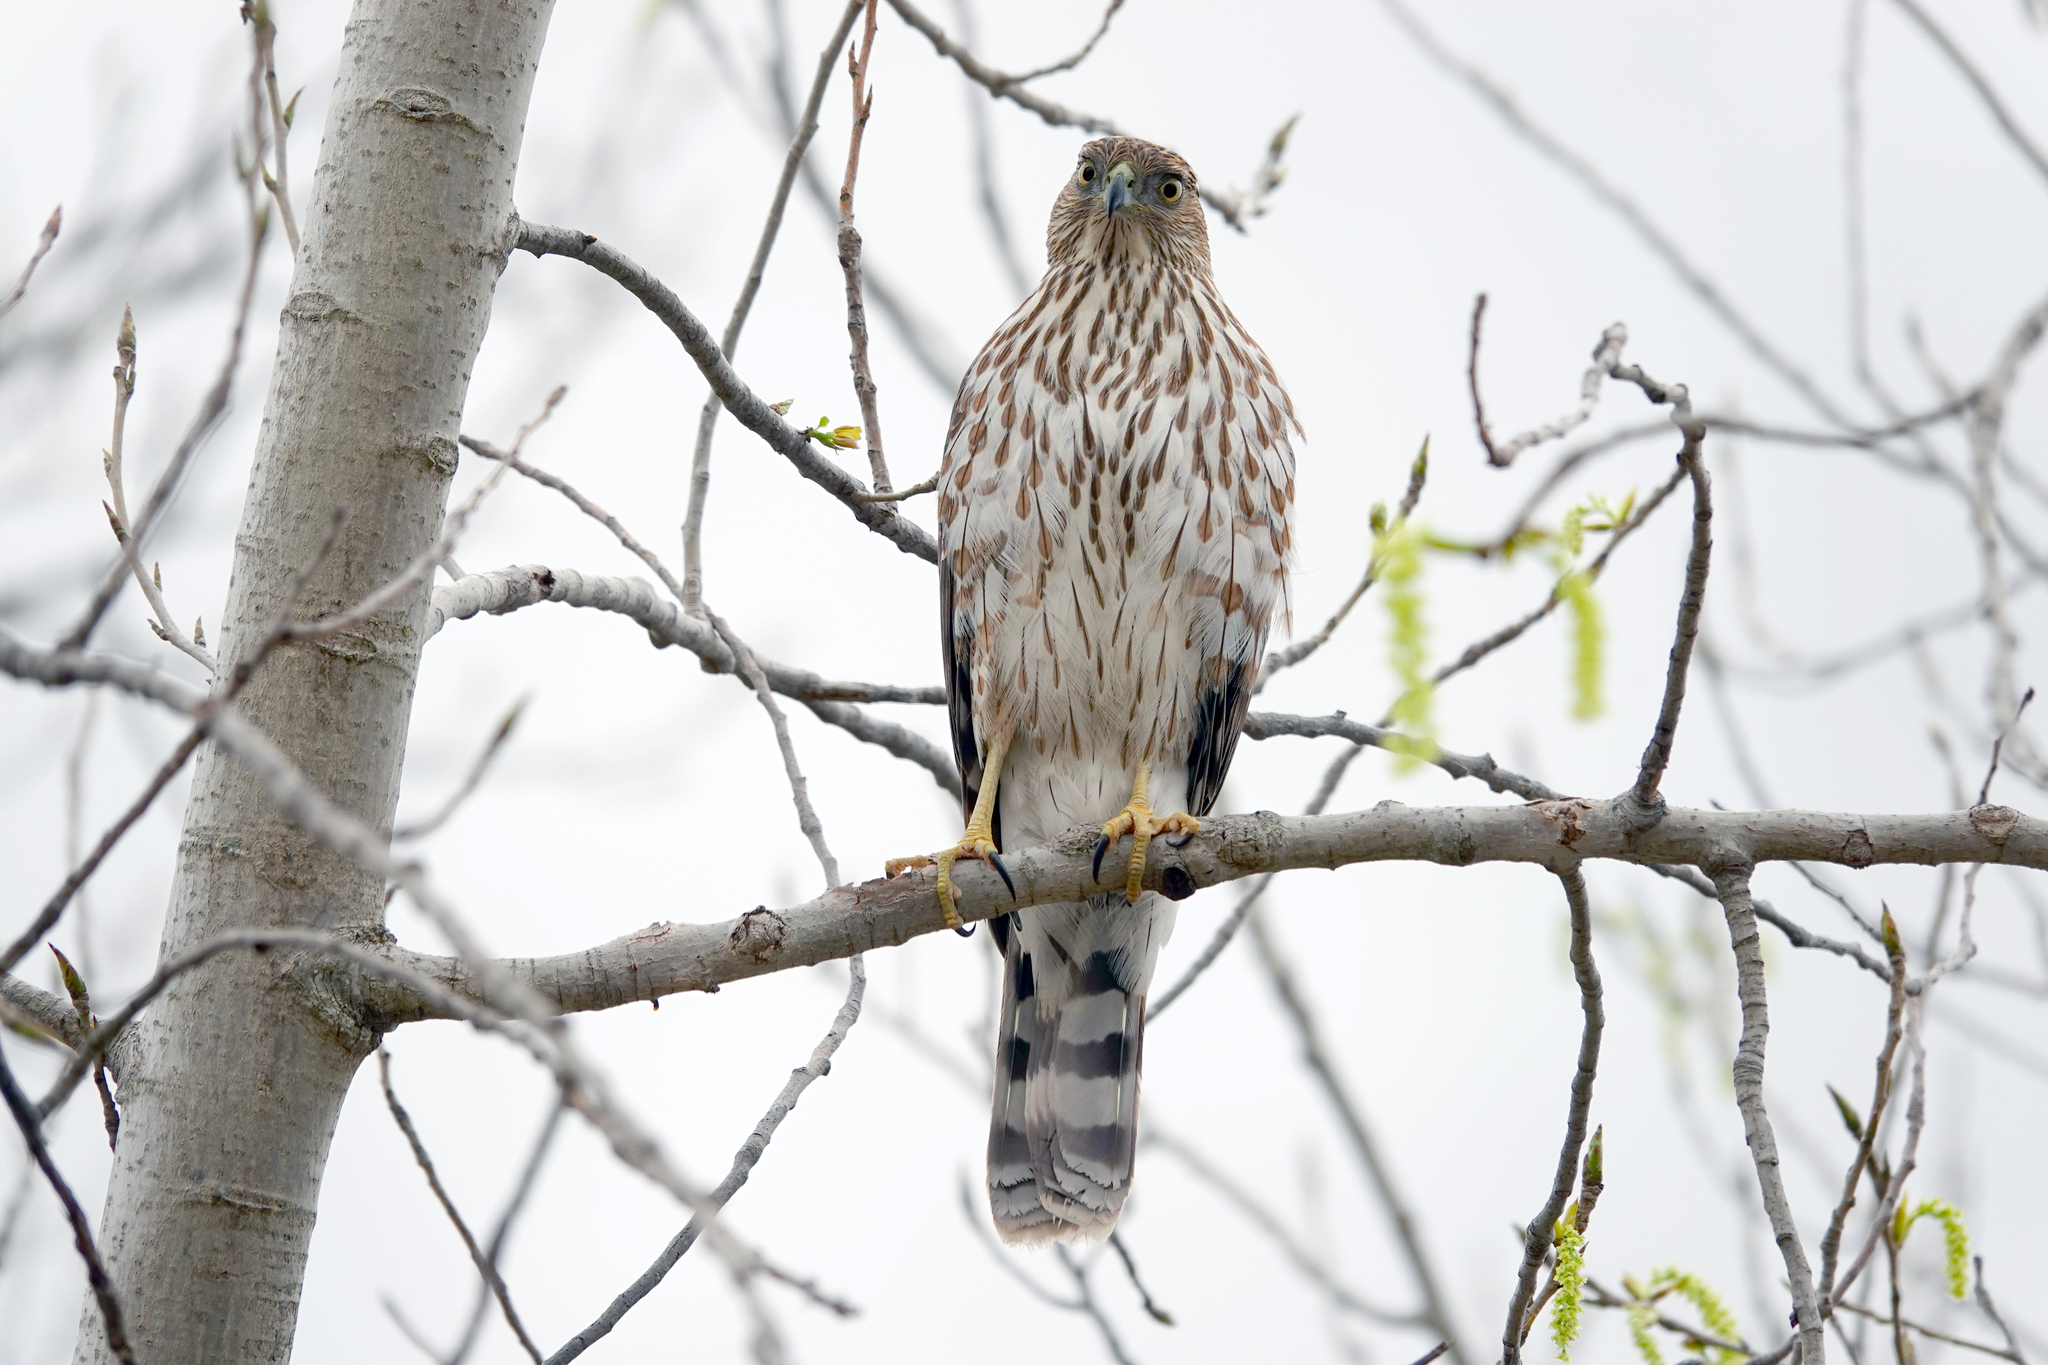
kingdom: Animalia
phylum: Chordata
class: Aves
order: Accipitriformes
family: Accipitridae
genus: Accipiter
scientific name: Accipiter cooperii
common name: Cooper's hawk
